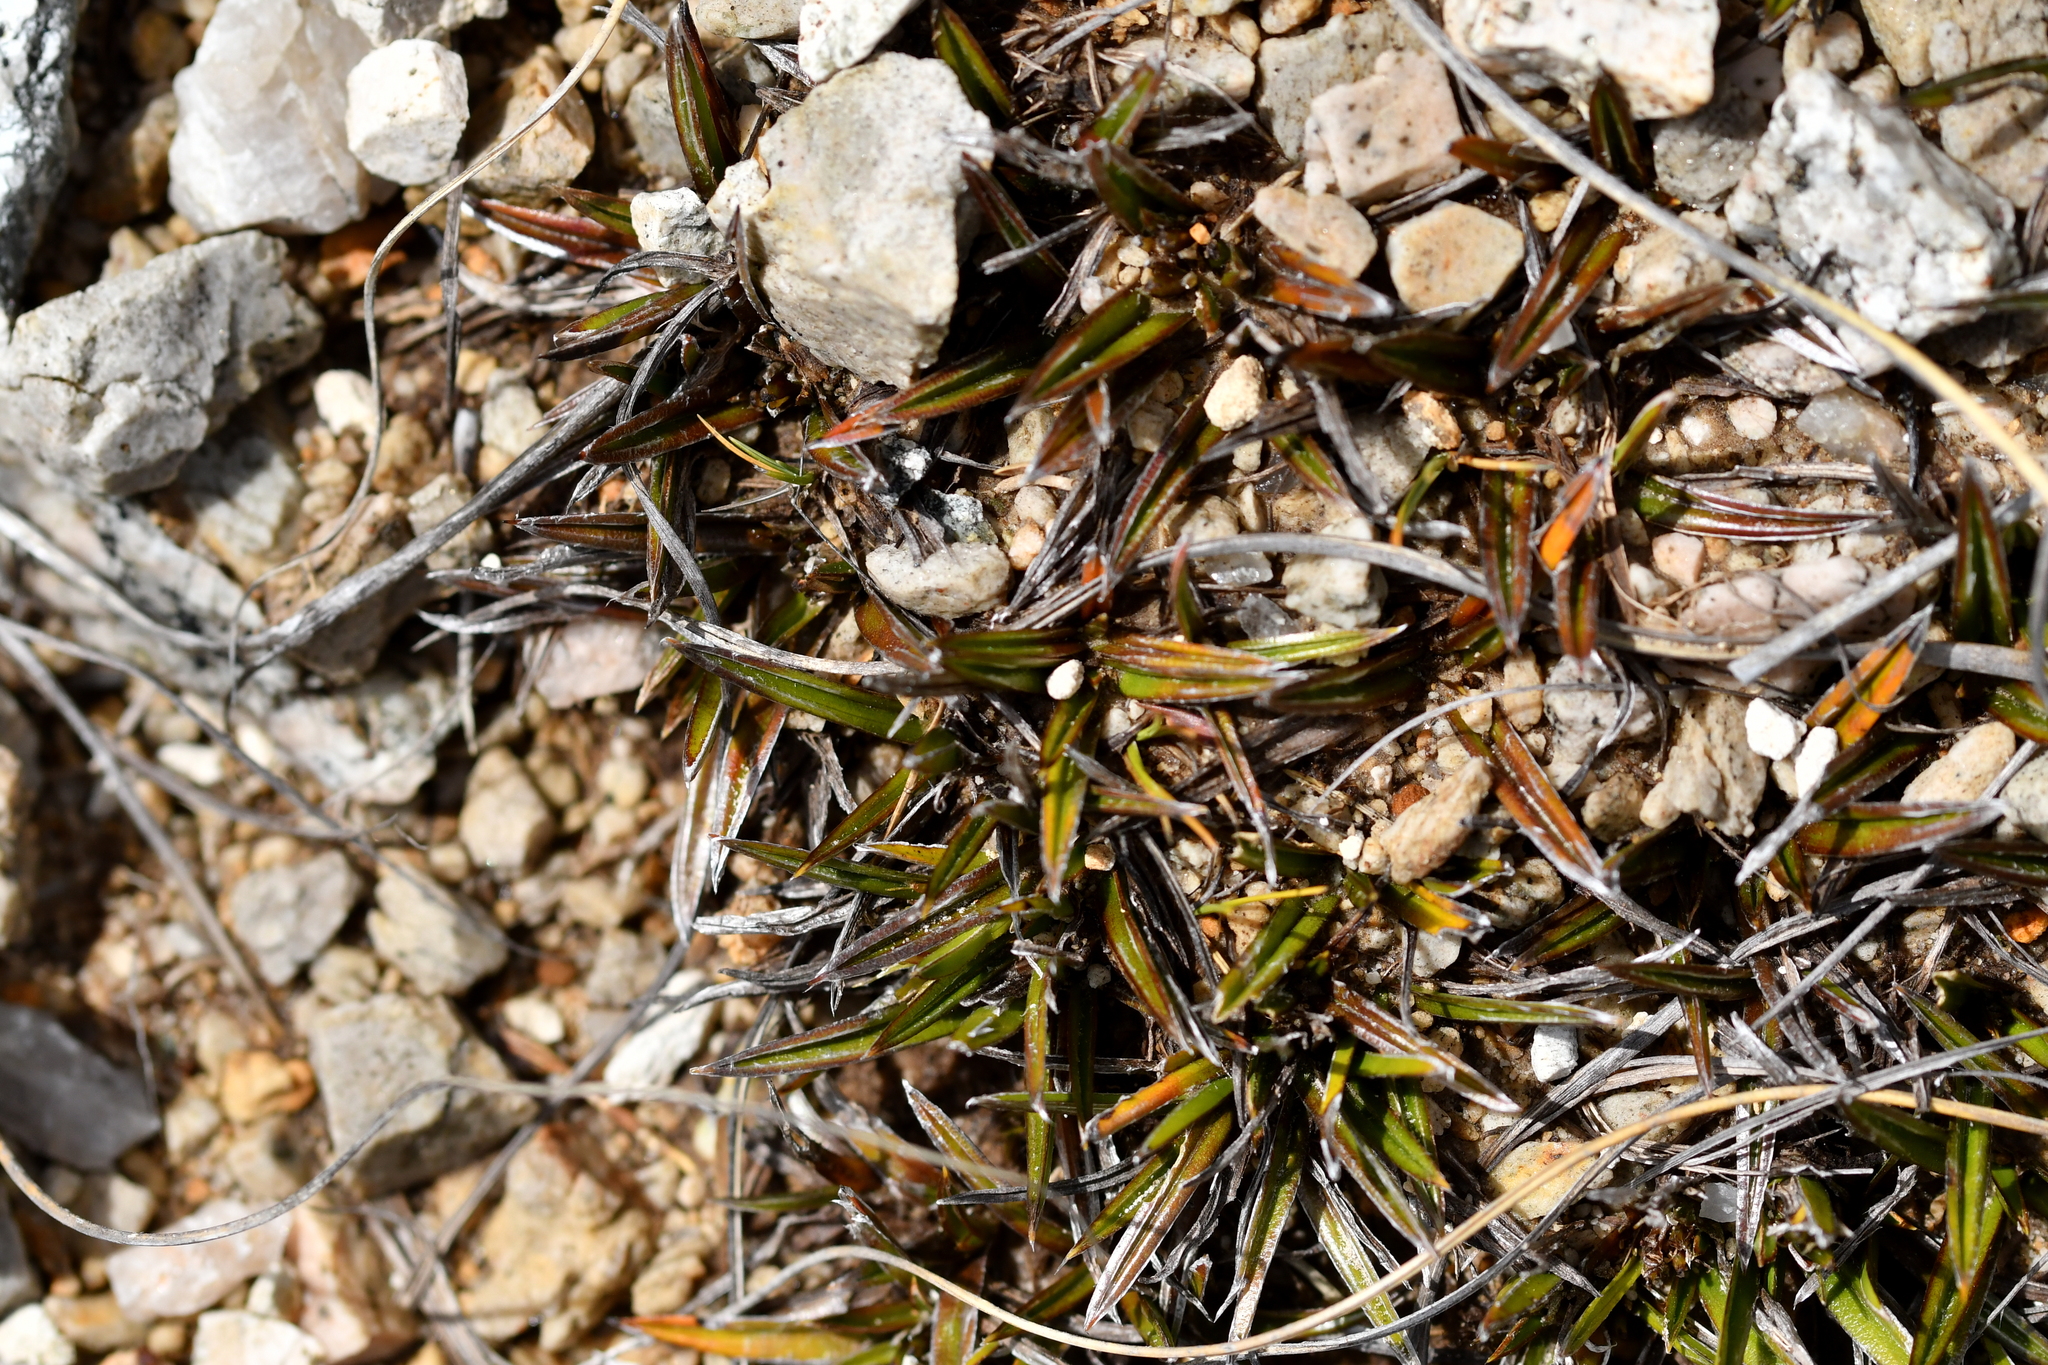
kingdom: Plantae
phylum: Tracheophyta
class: Liliopsida
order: Asparagales
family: Asteliaceae
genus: Astelia
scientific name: Astelia linearis
